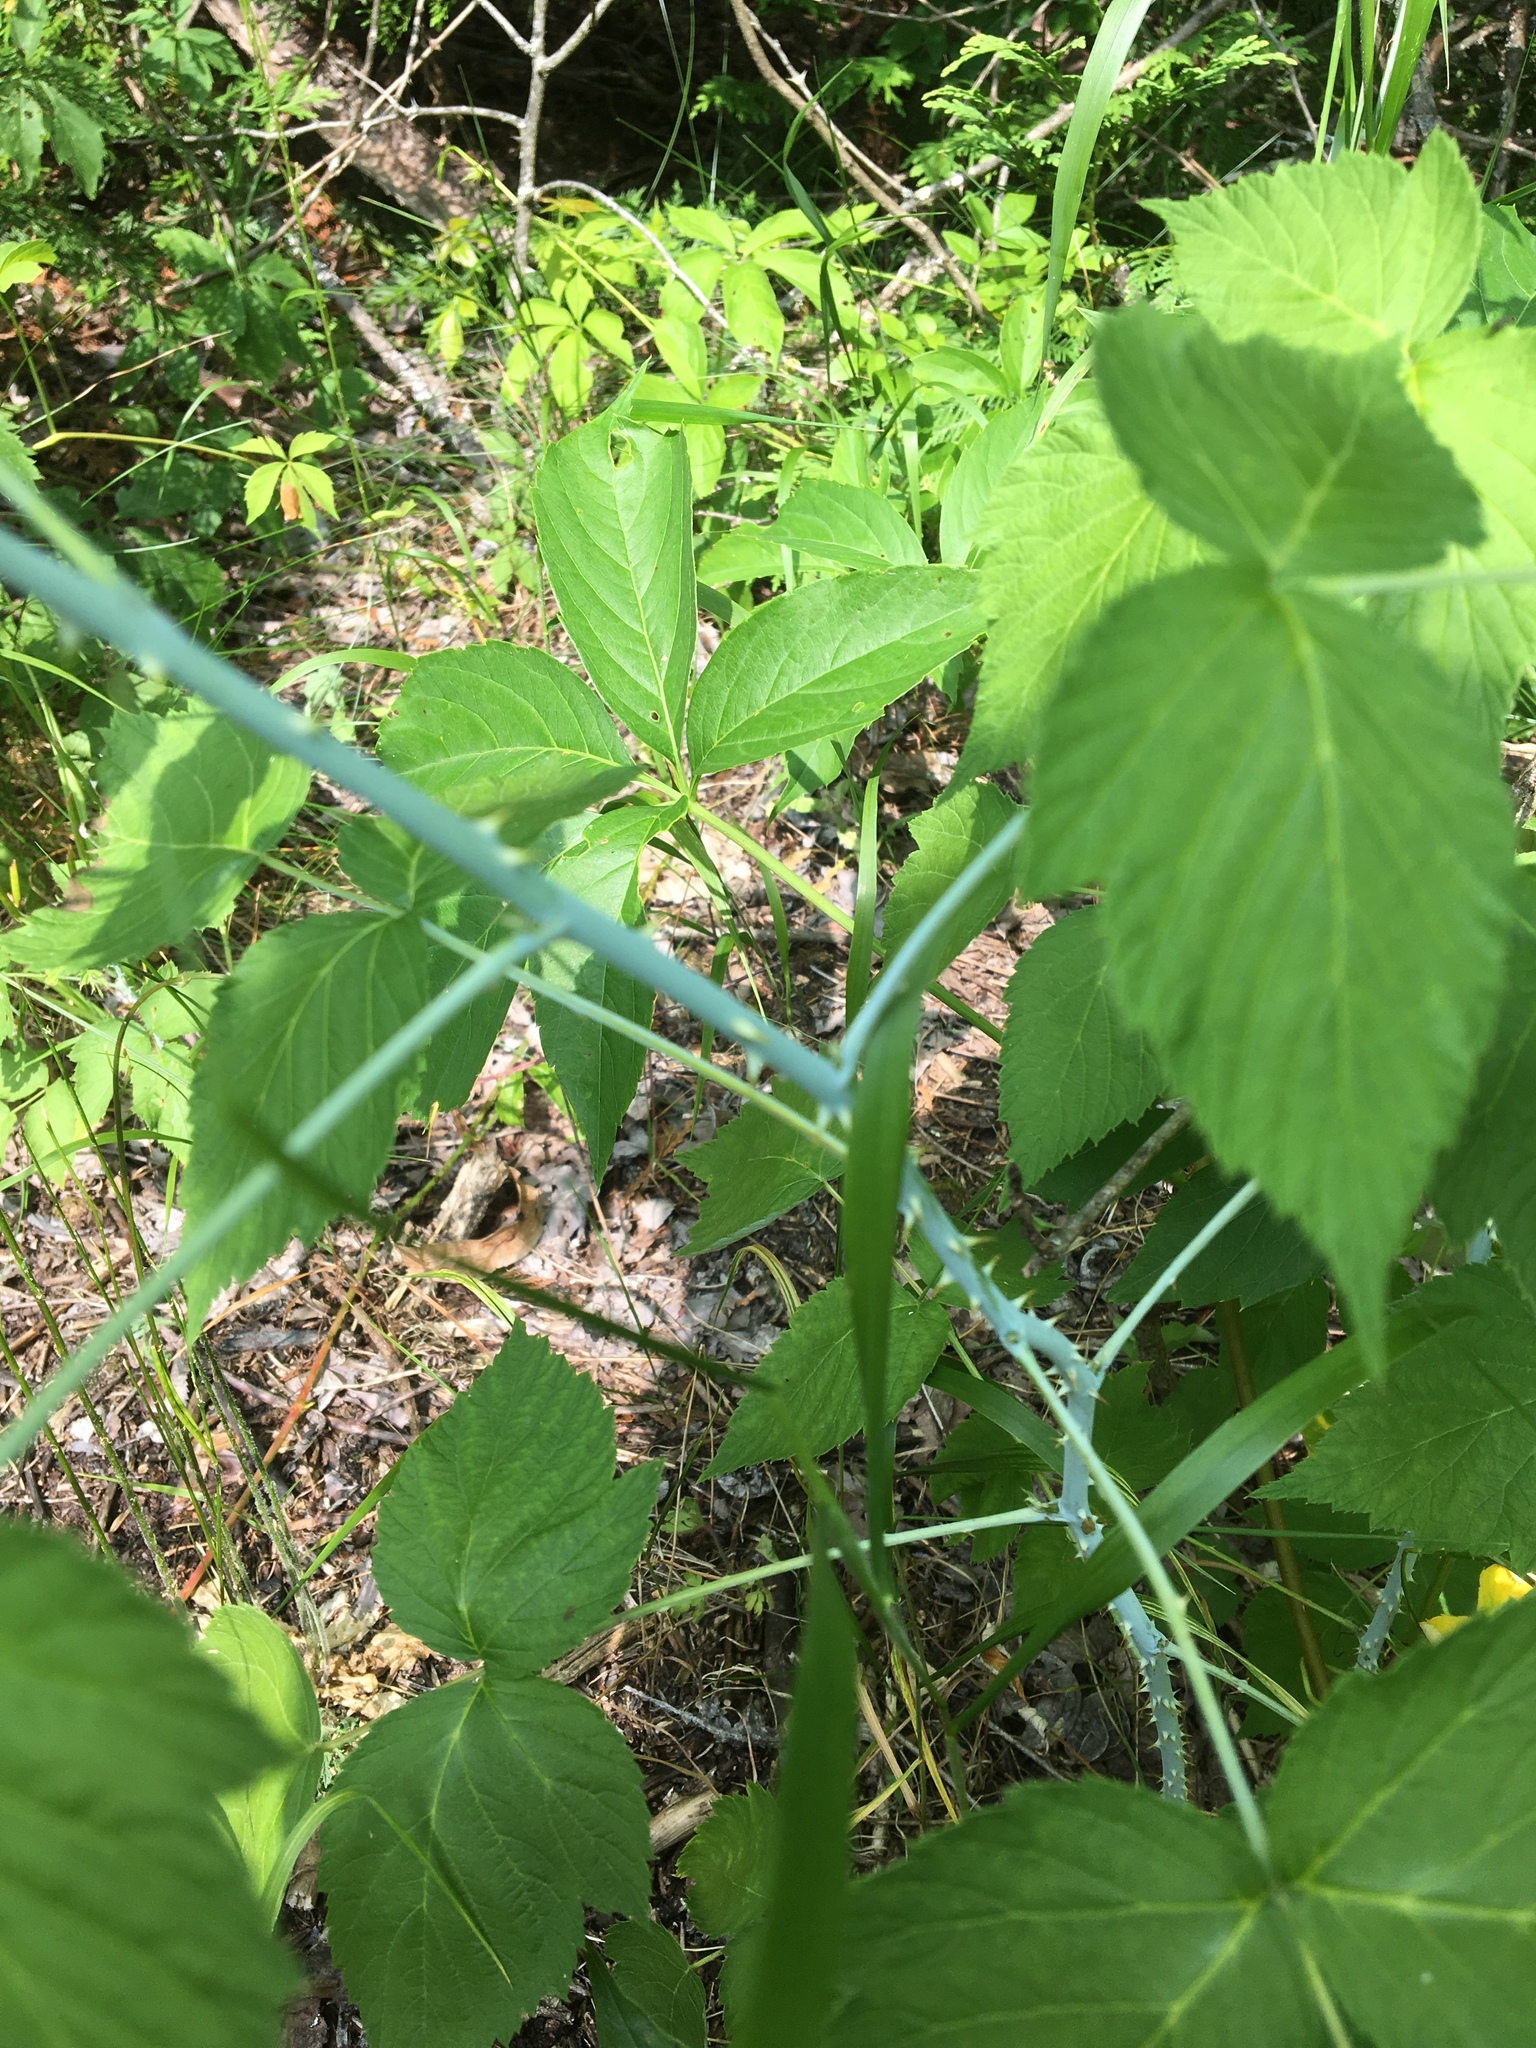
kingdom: Plantae
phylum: Tracheophyta
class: Magnoliopsida
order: Rosales
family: Rosaceae
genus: Rubus
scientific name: Rubus occidentalis
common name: Black raspberry
